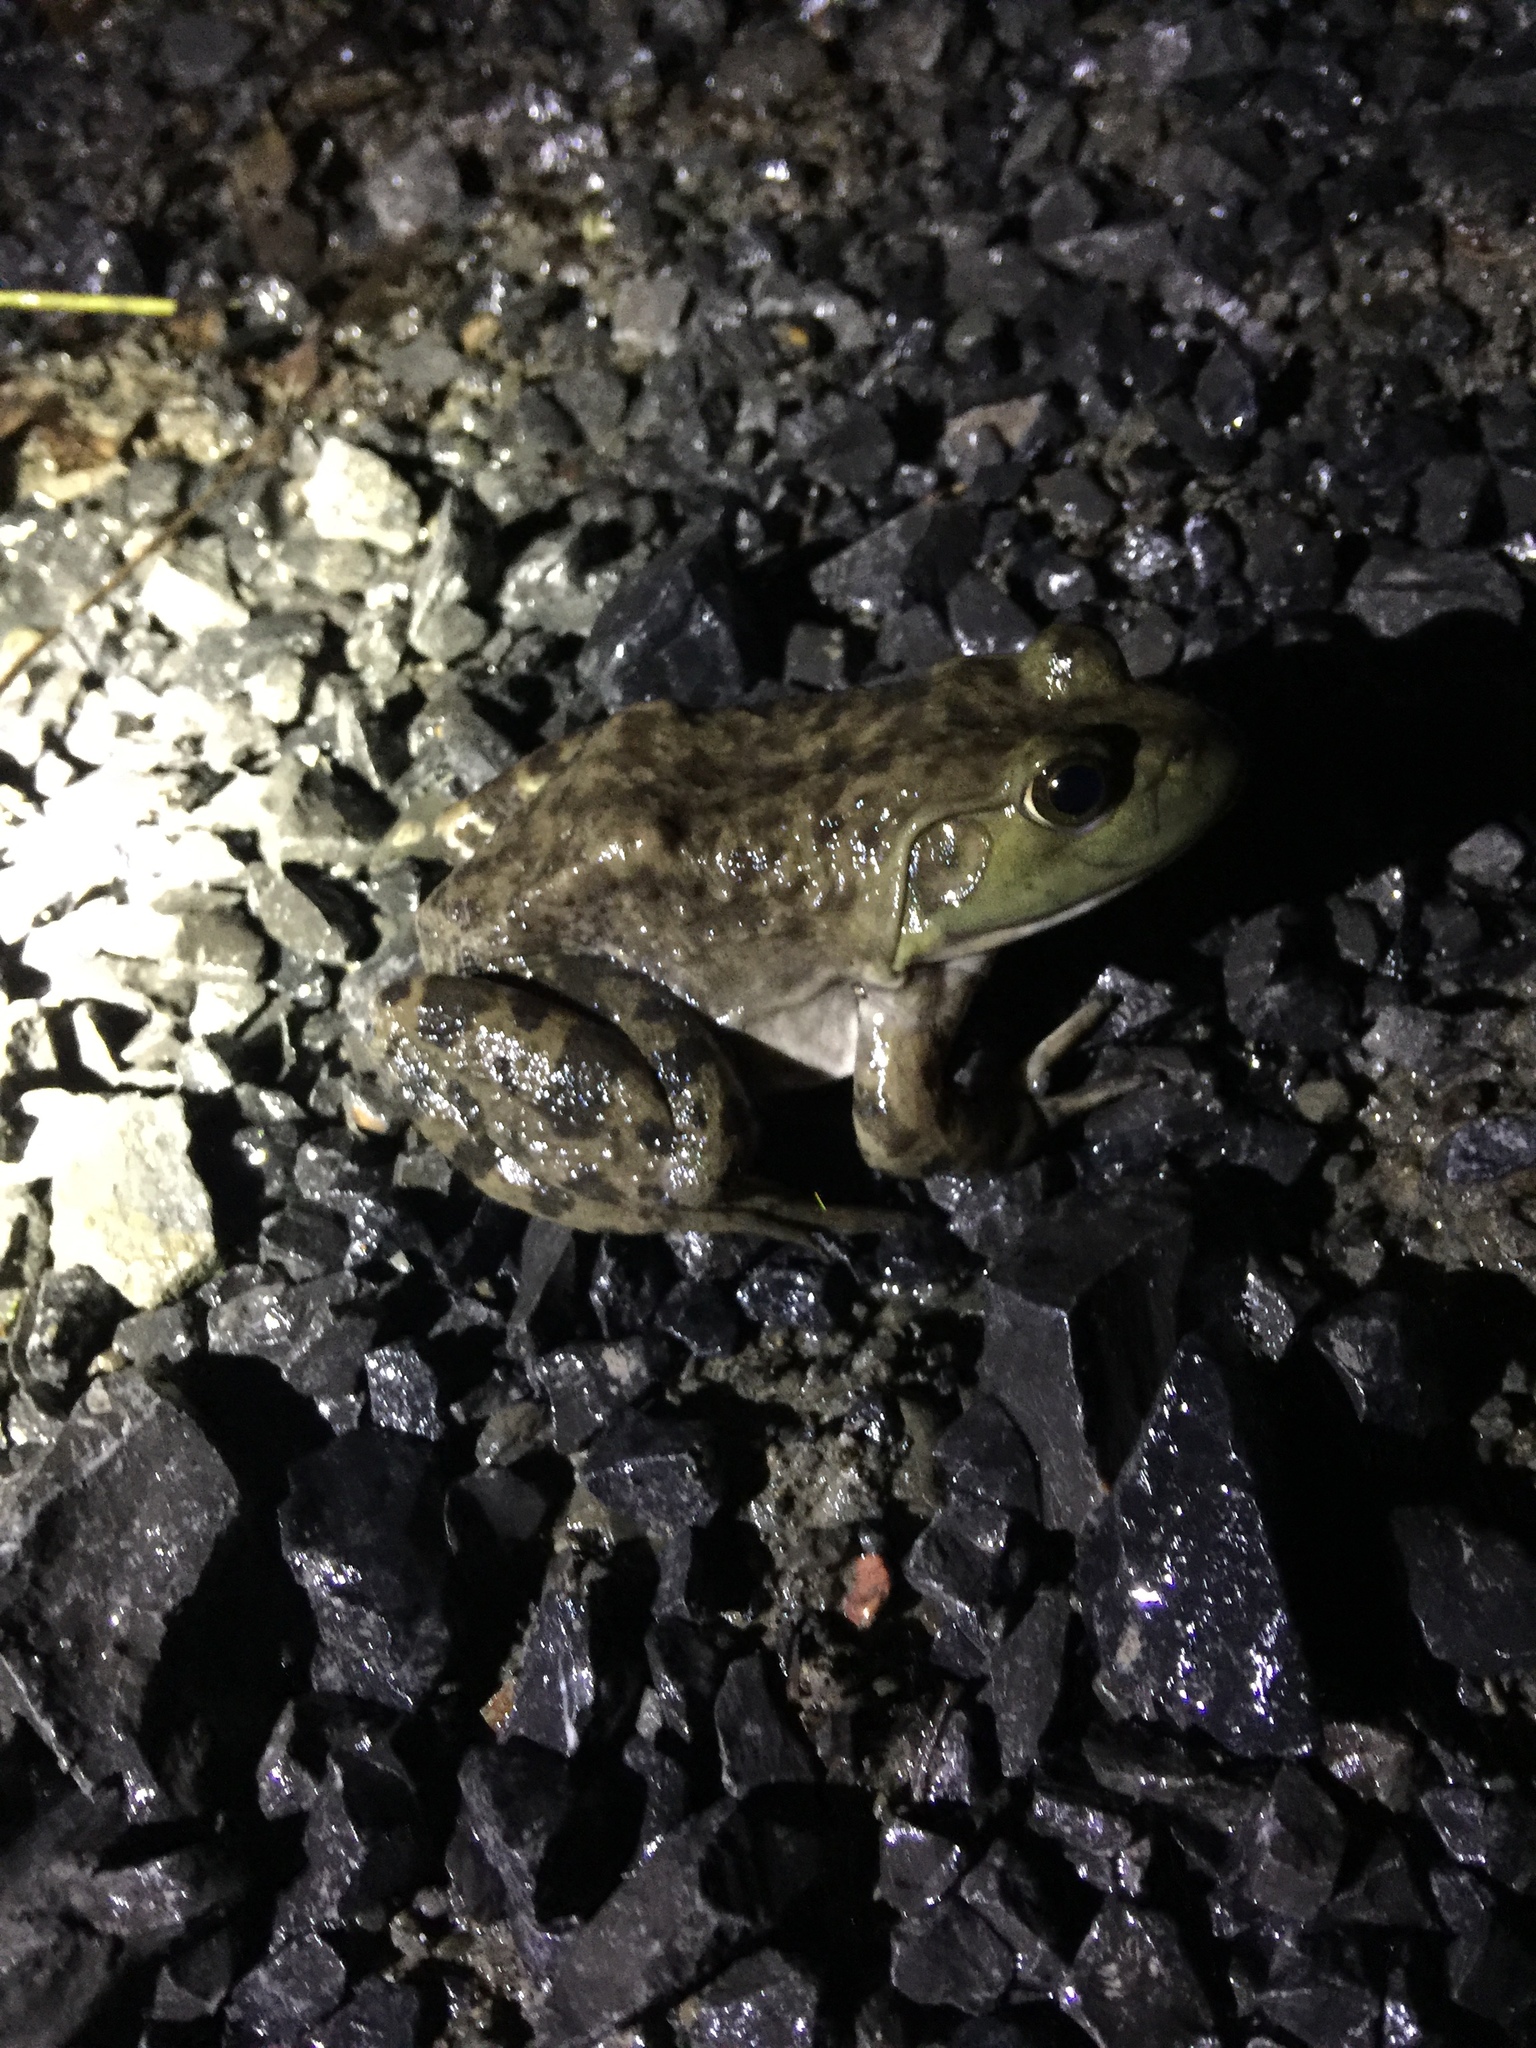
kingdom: Animalia
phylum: Chordata
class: Amphibia
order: Anura
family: Ranidae
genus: Lithobates
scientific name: Lithobates catesbeianus
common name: American bullfrog
